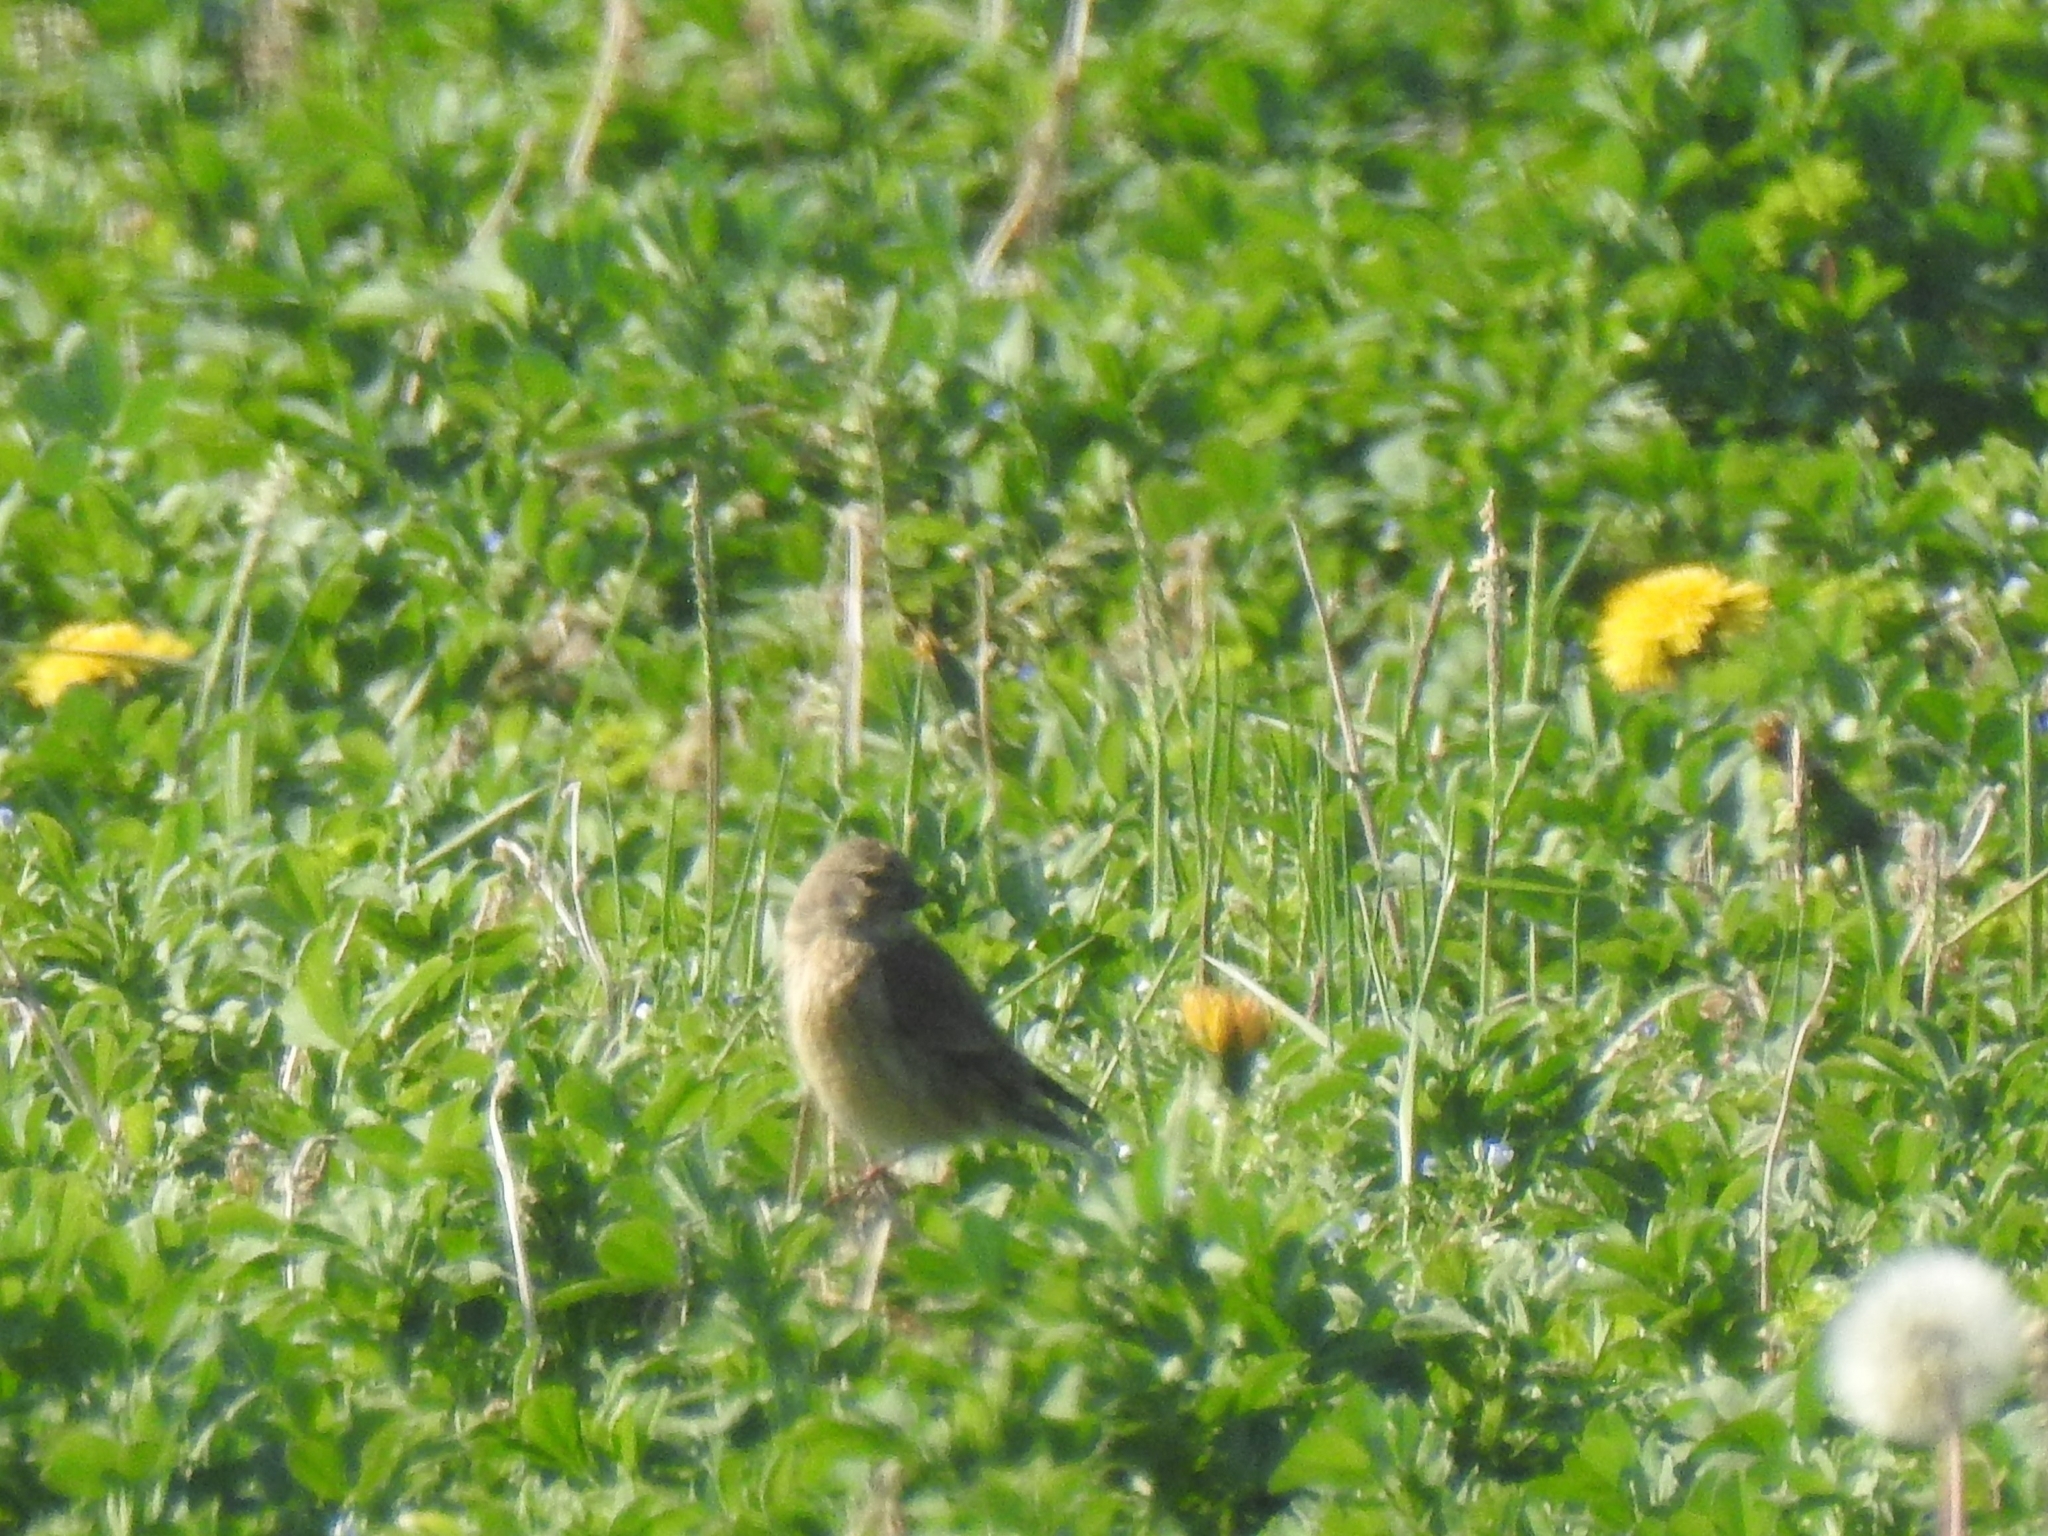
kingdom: Animalia
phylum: Chordata
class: Aves
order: Passeriformes
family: Fringillidae
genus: Linaria
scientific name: Linaria cannabina
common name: Common linnet
